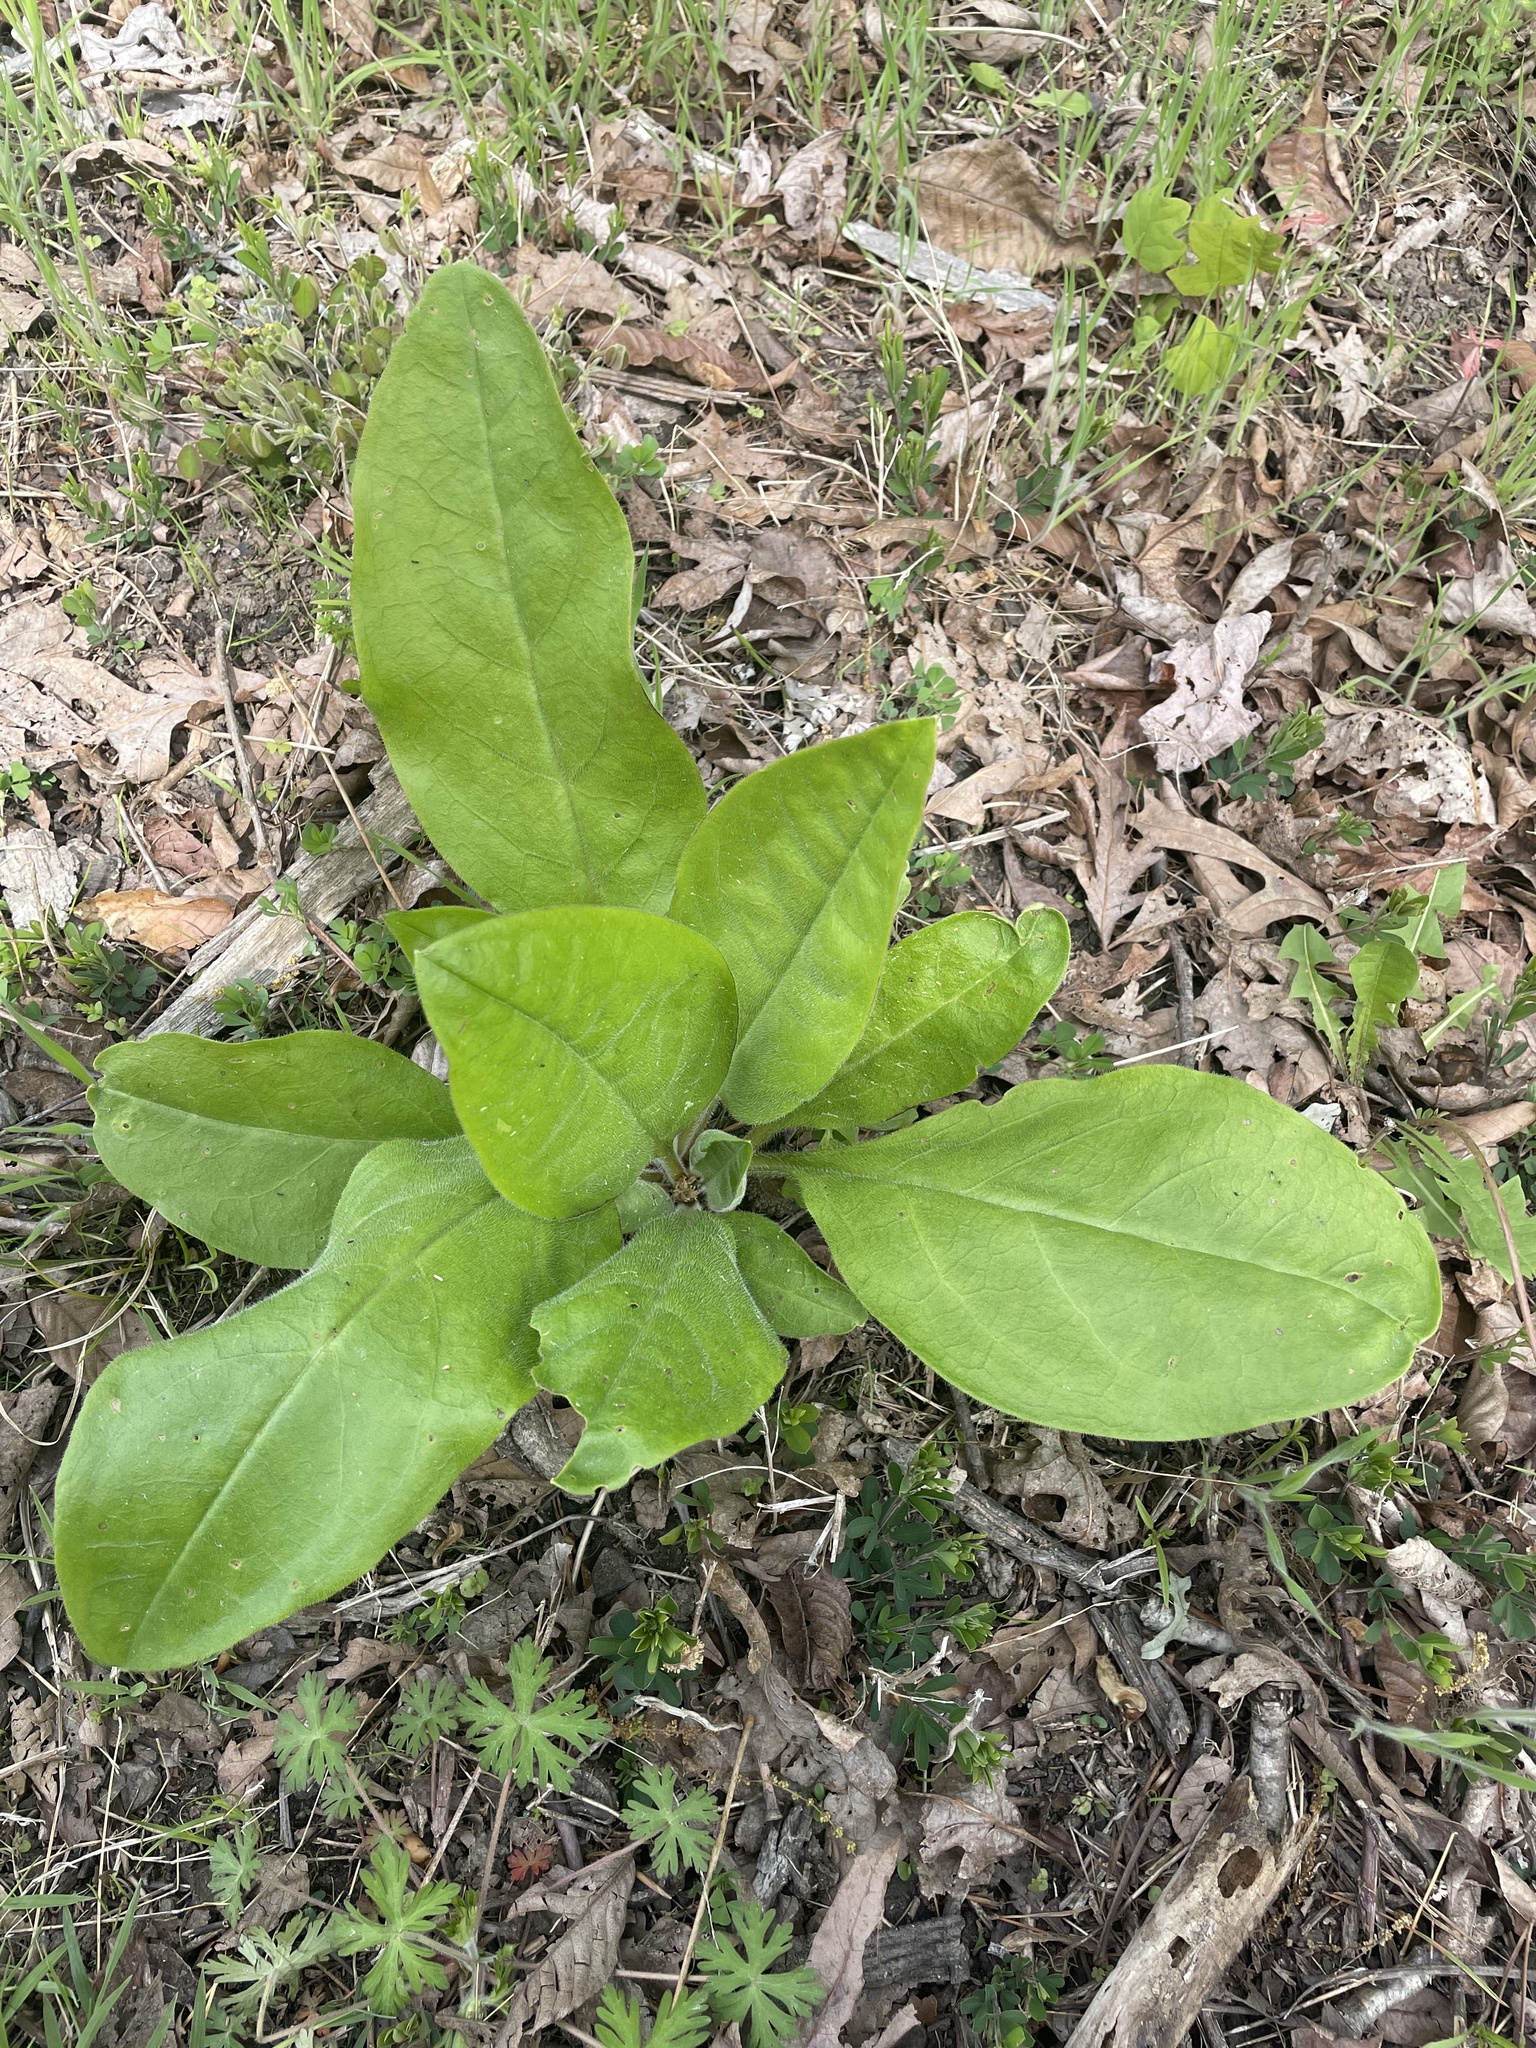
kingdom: Plantae
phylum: Tracheophyta
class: Magnoliopsida
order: Boraginales
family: Boraginaceae
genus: Andersonglossum
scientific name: Andersonglossum virginianum
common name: Wild comfrey
